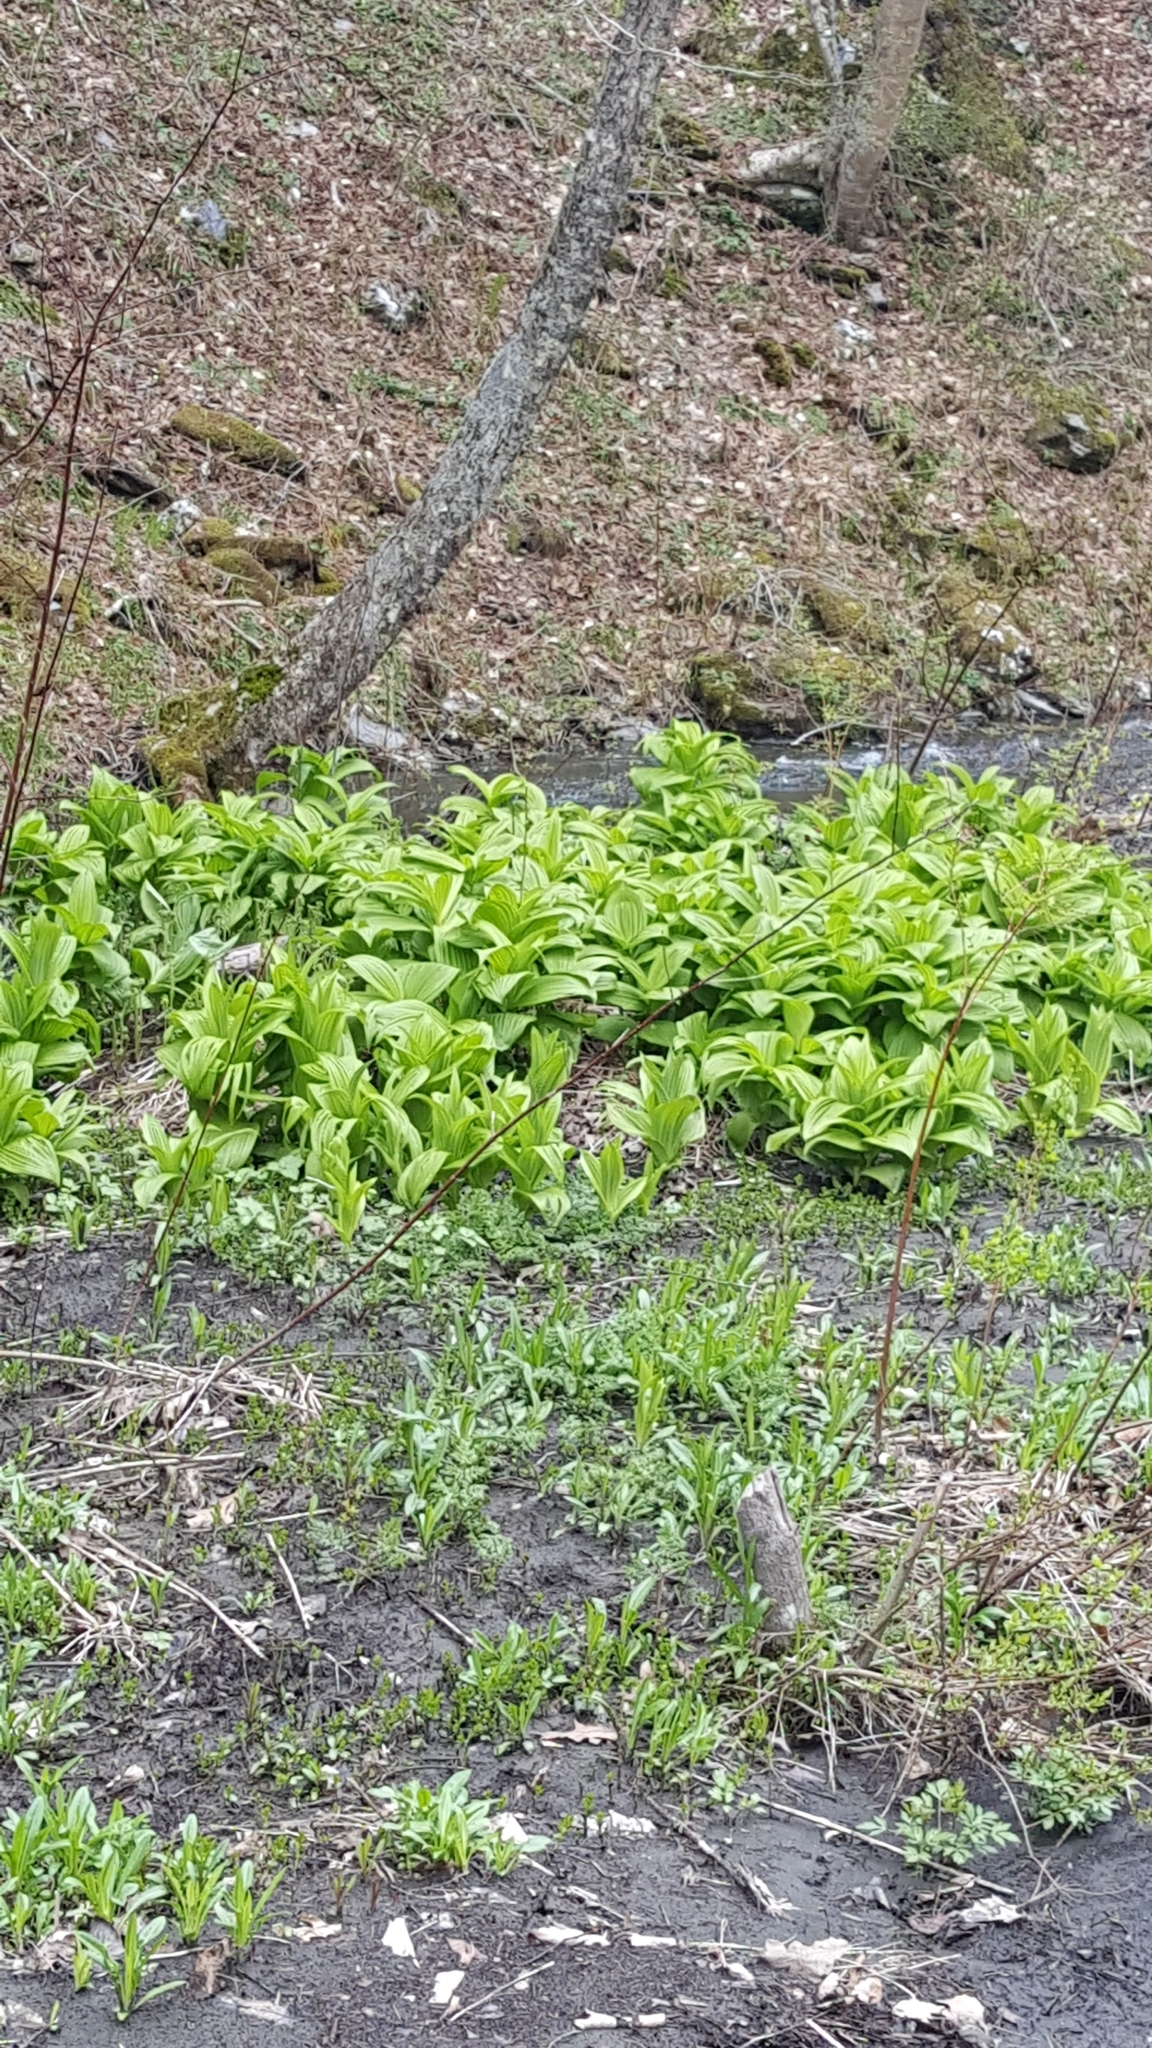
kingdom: Plantae
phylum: Tracheophyta
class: Liliopsida
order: Liliales
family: Melanthiaceae
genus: Veratrum
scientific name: Veratrum viride
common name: American false hellebore
